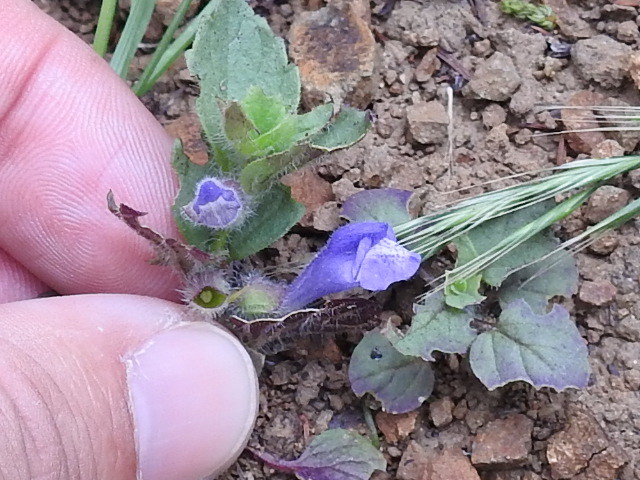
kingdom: Plantae
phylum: Tracheophyta
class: Magnoliopsida
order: Lamiales
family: Lamiaceae
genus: Scutellaria
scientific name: Scutellaria tuberosa
